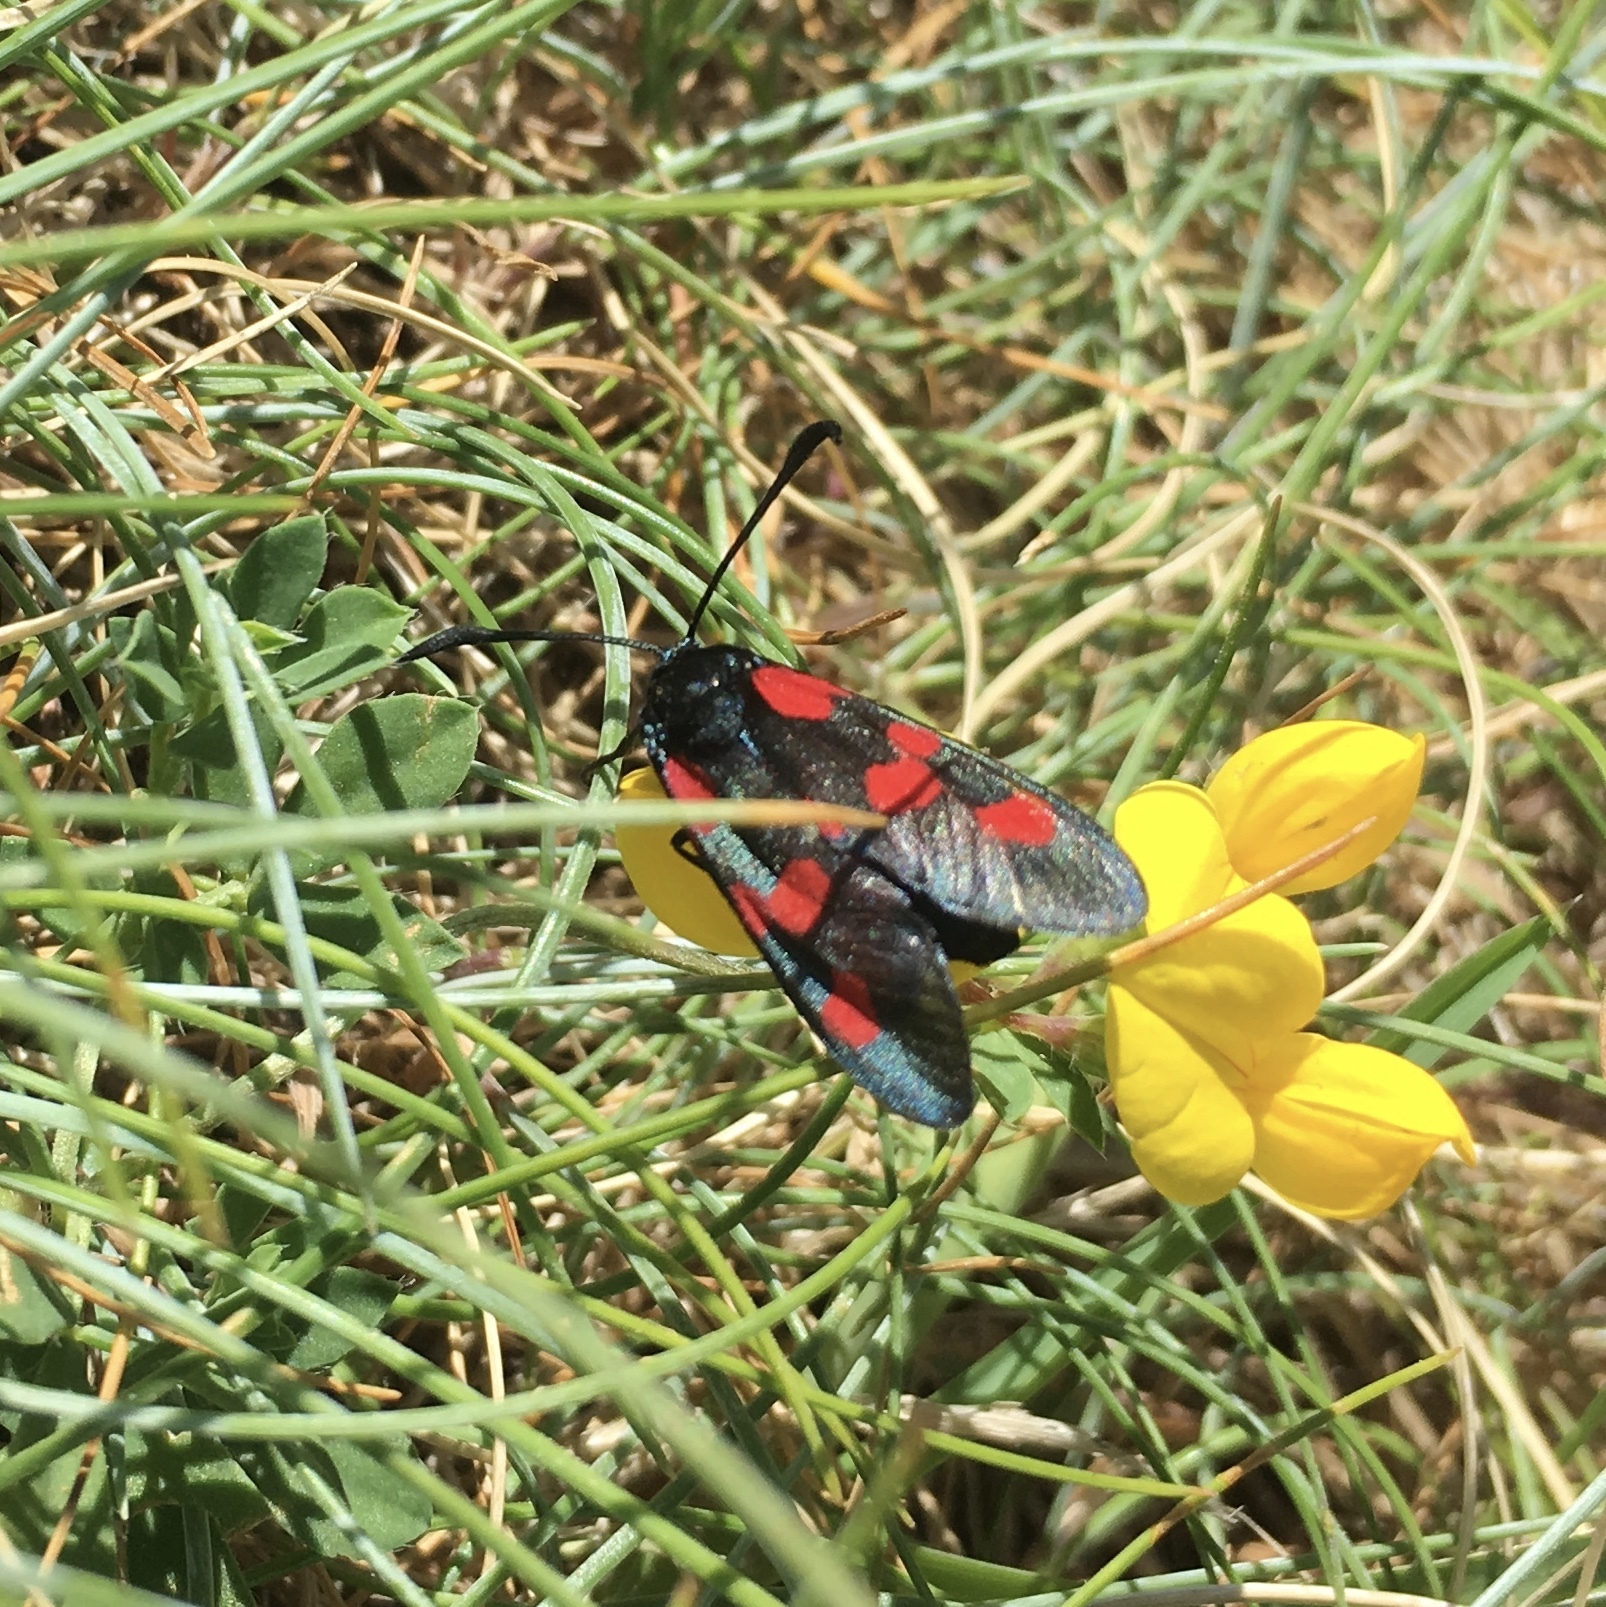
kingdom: Animalia
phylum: Arthropoda
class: Insecta
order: Lepidoptera
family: Zygaenidae
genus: Zygaena
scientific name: Zygaena trifolii
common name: Five-spot burnet
